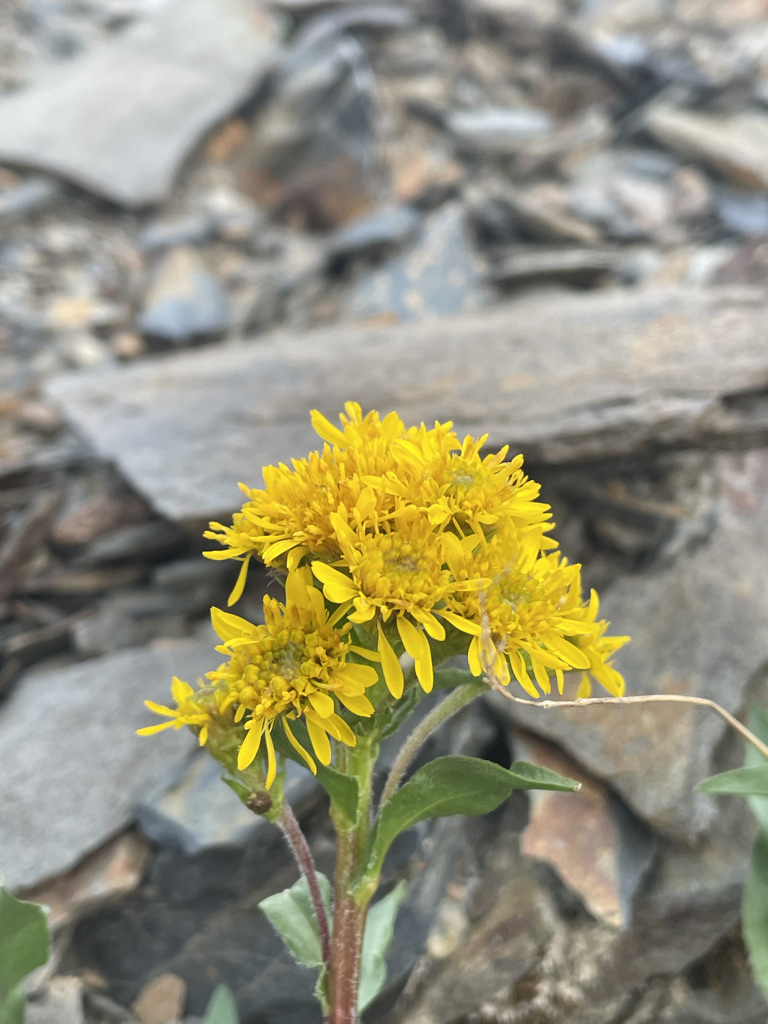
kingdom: Plantae
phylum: Tracheophyta
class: Magnoliopsida
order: Asterales
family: Asteraceae
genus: Solidago
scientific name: Solidago multiradiata
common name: Northern goldenrod
